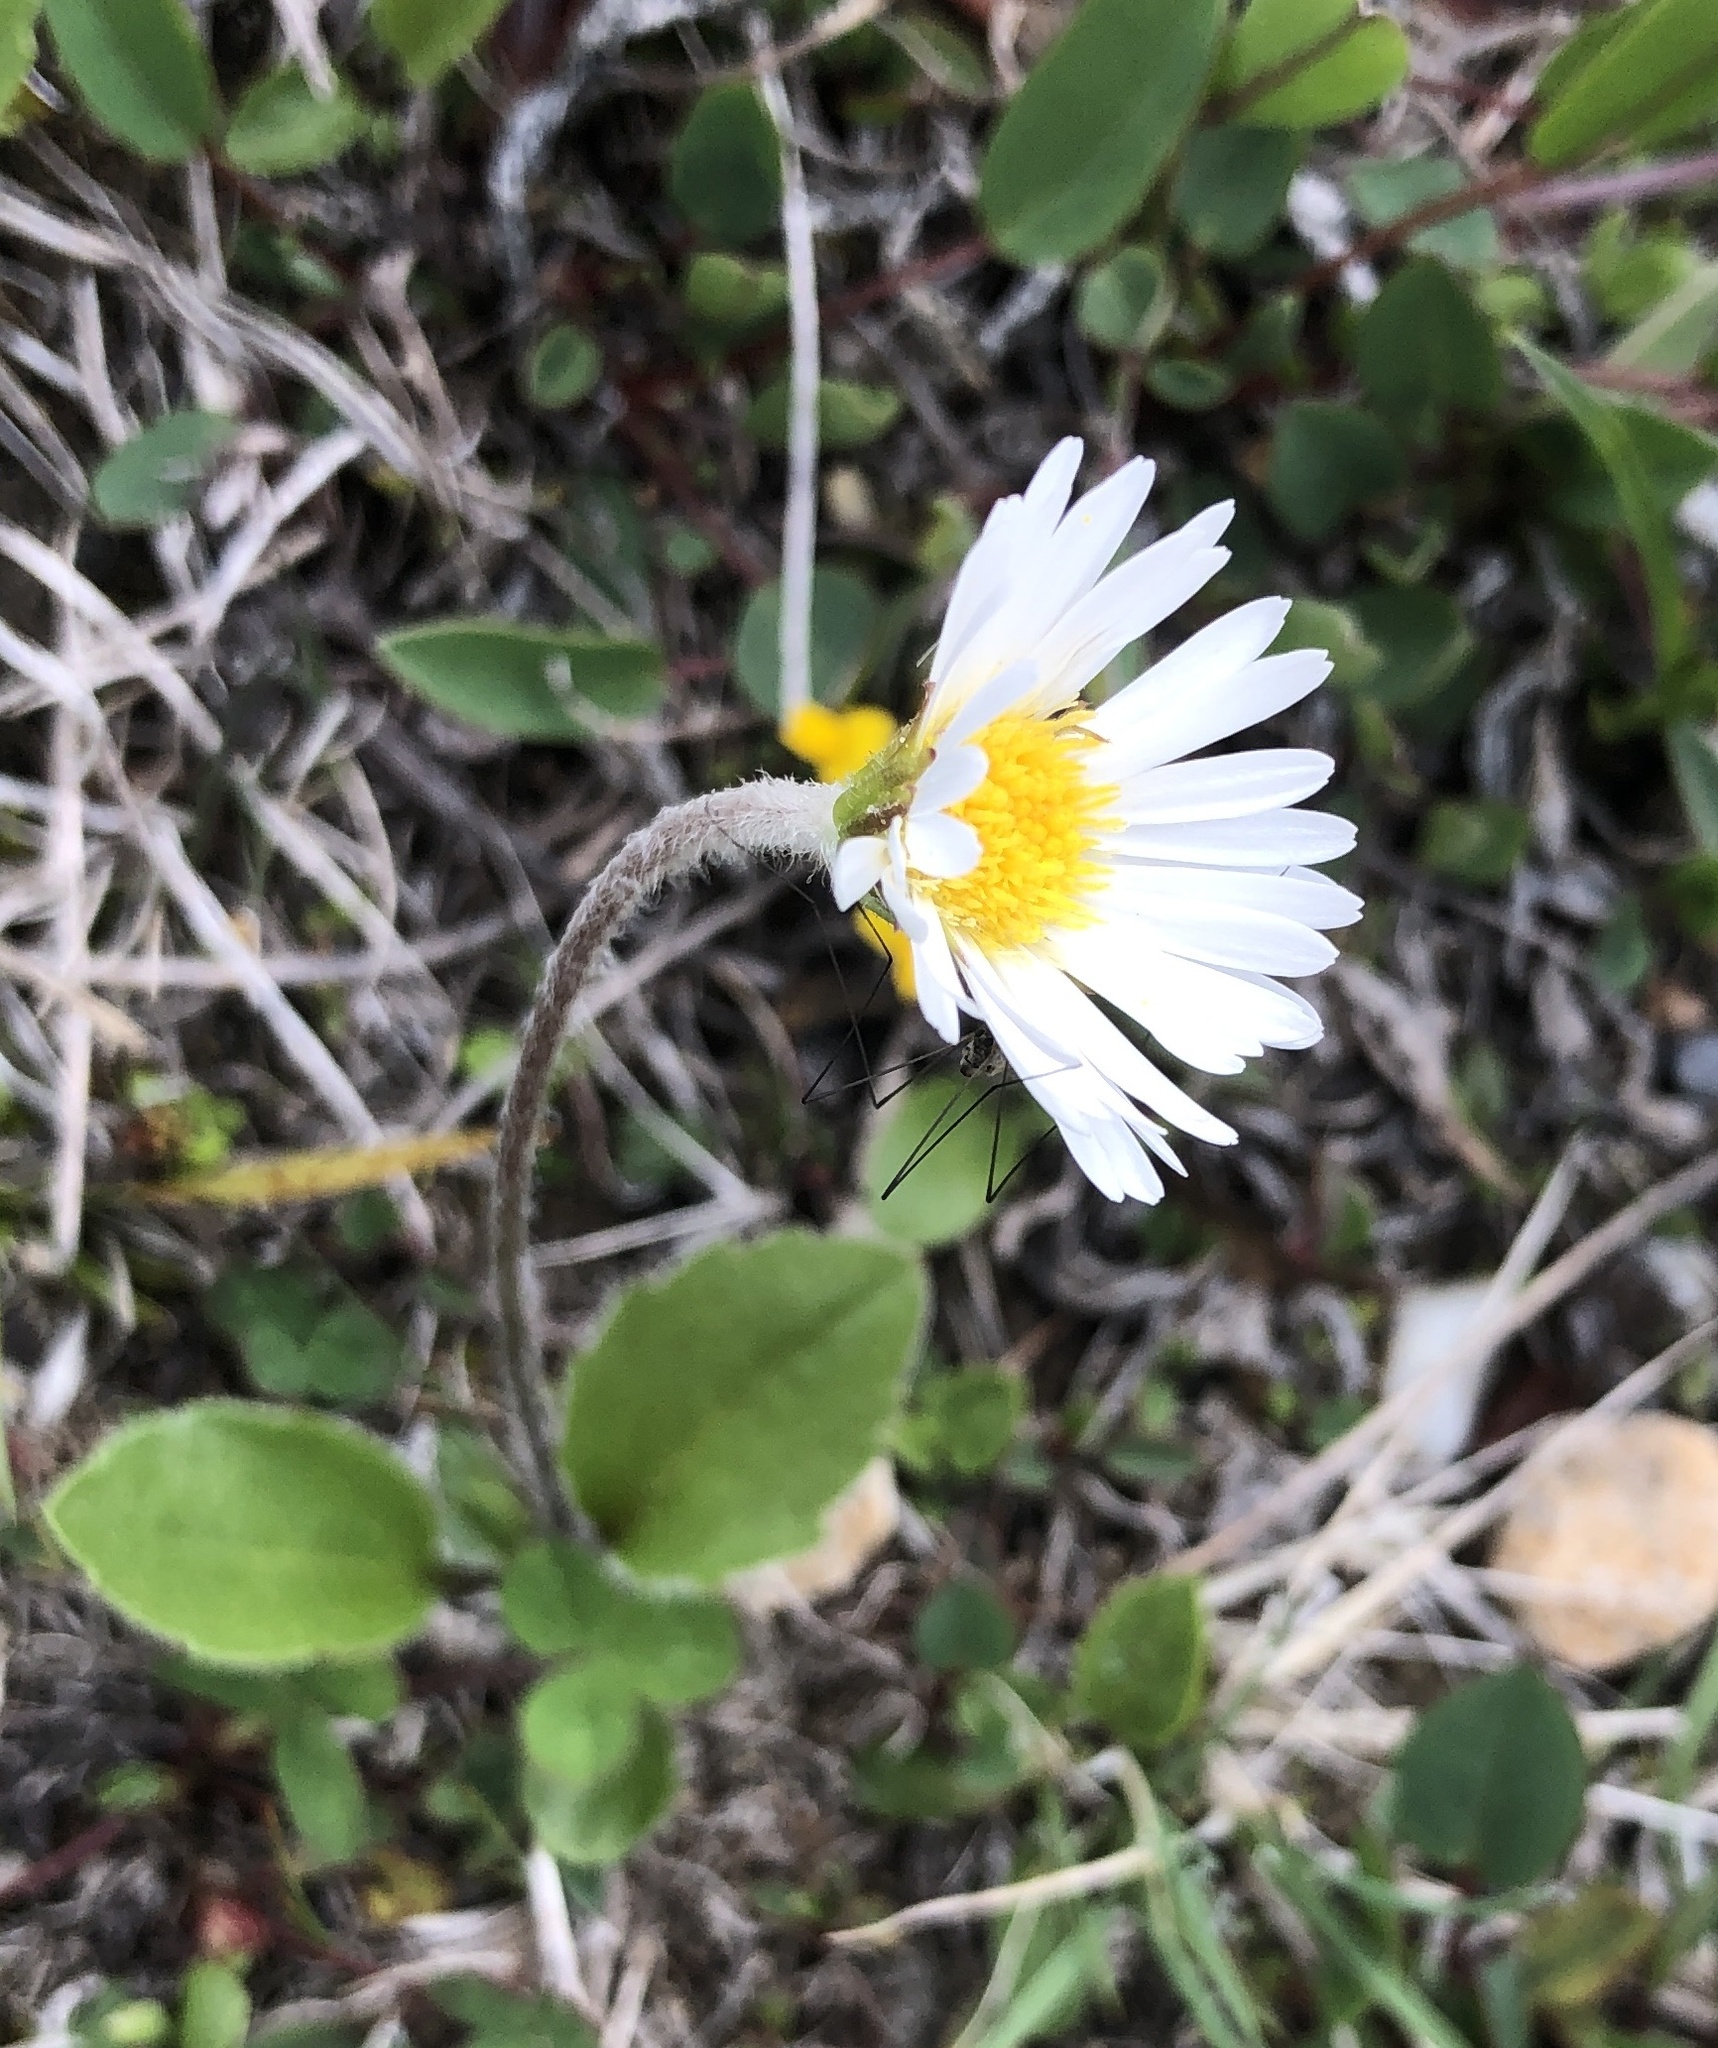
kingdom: Plantae
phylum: Tracheophyta
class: Magnoliopsida
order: Asterales
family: Asteraceae
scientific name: Asteraceae
